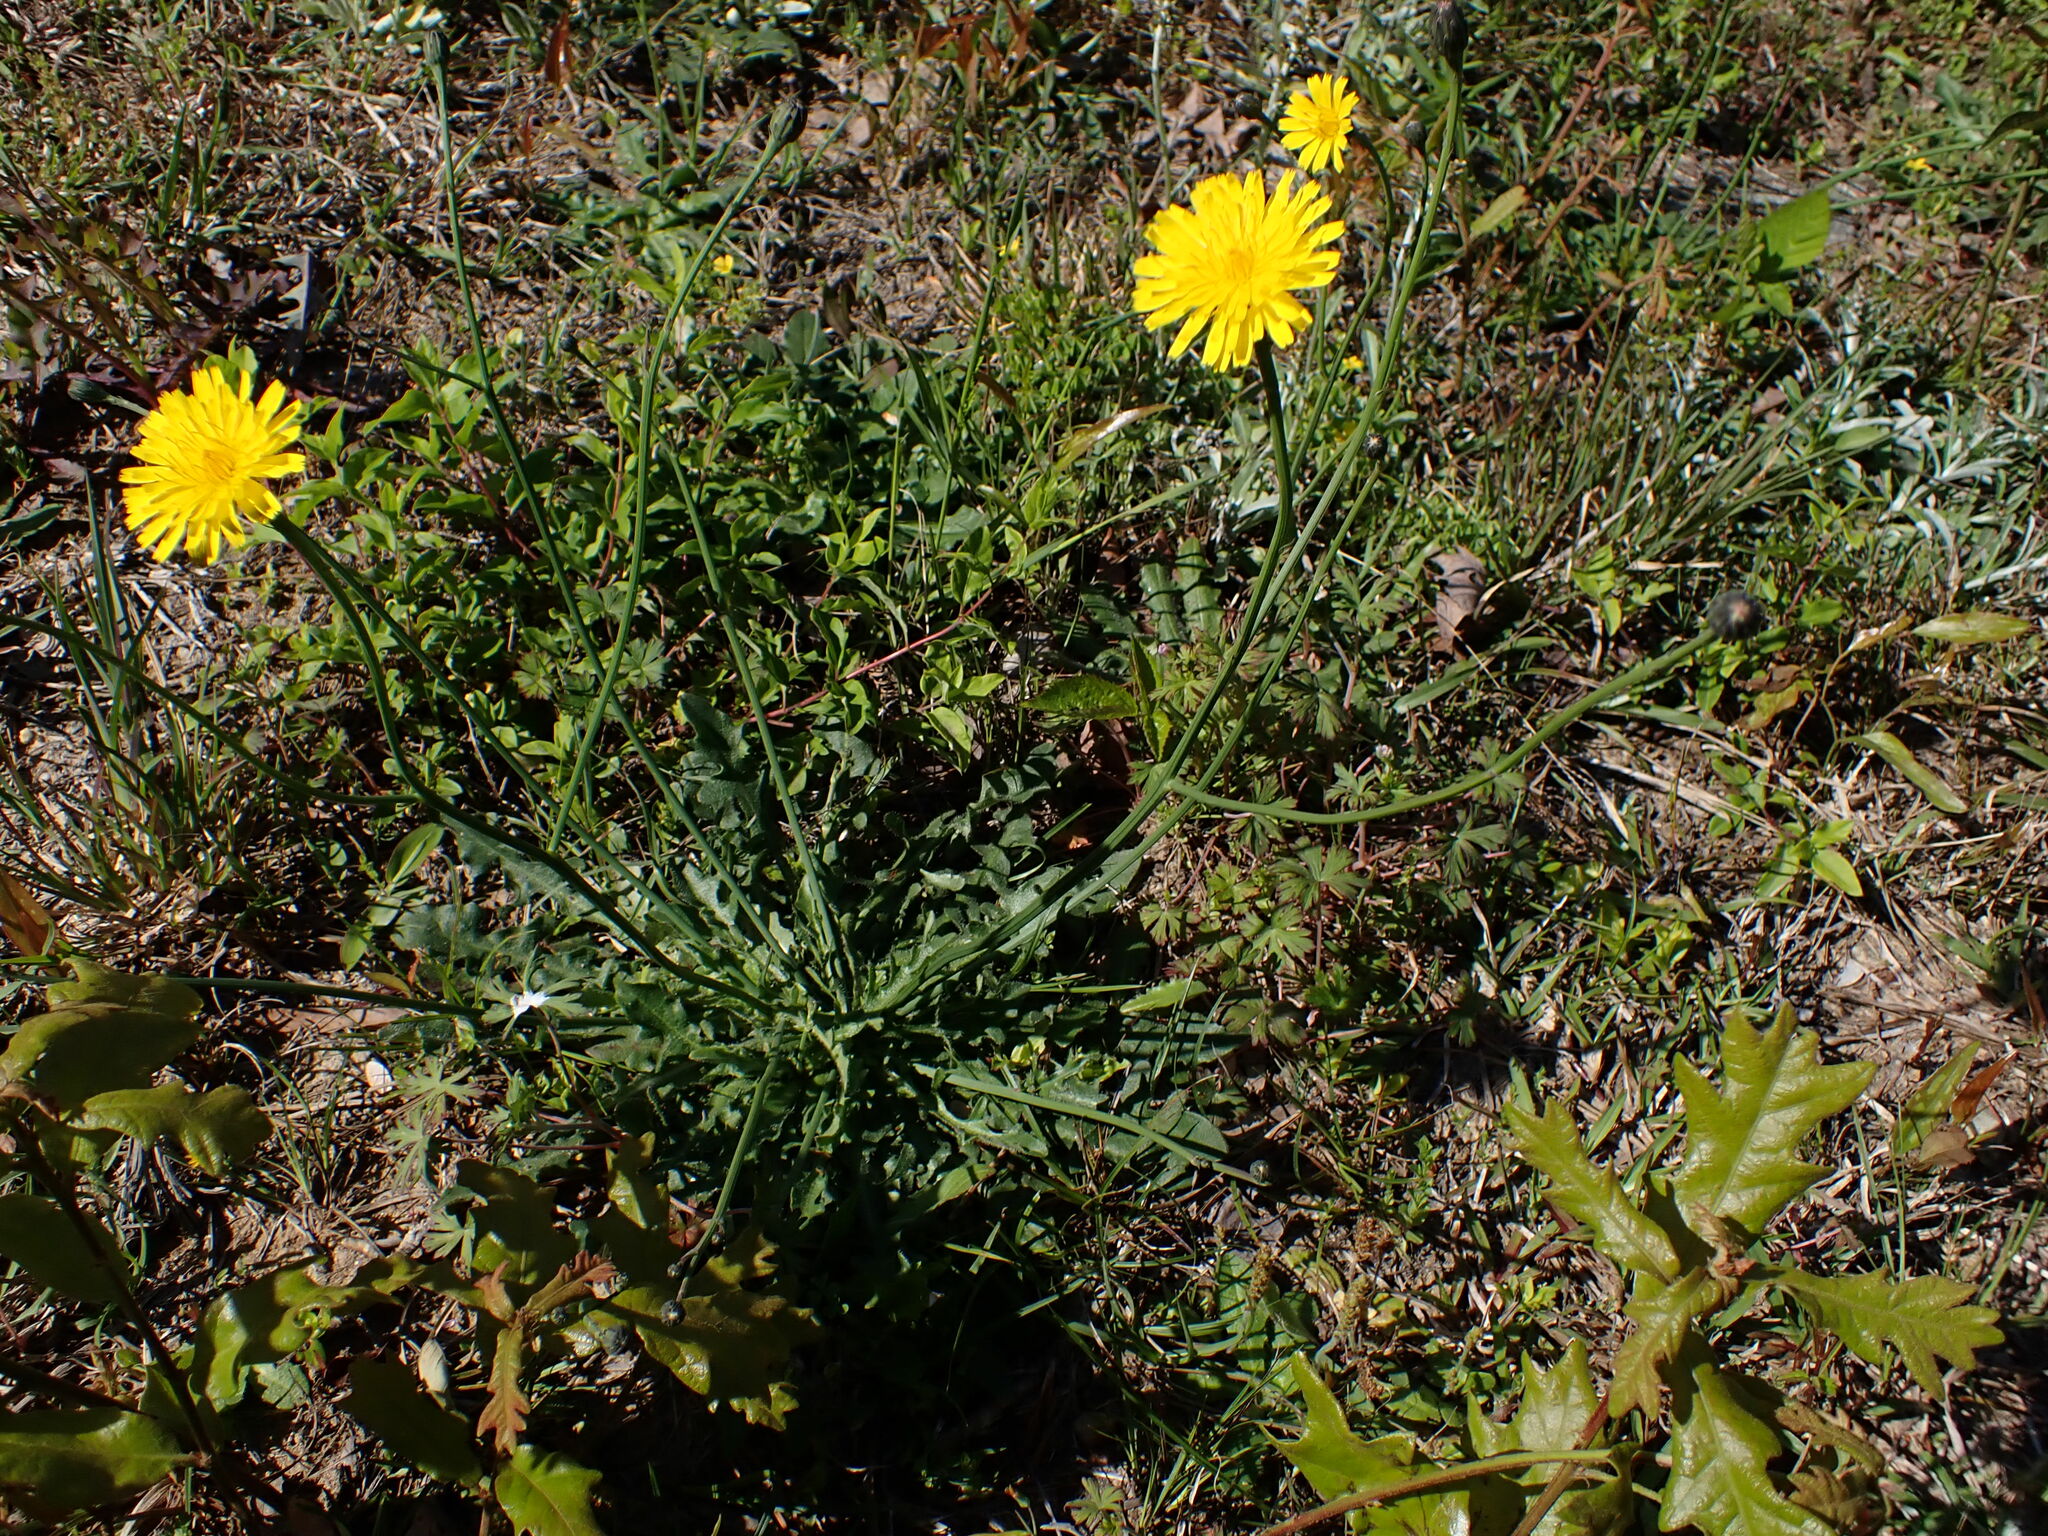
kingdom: Plantae
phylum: Tracheophyta
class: Magnoliopsida
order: Asterales
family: Asteraceae
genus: Hypochaeris
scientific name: Hypochaeris radicata
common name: Flatweed
